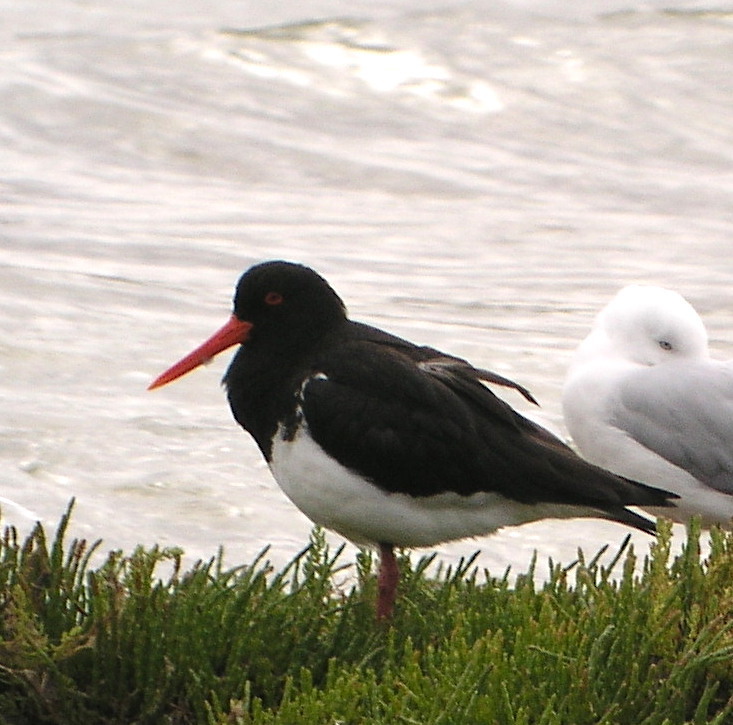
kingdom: Animalia
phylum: Chordata
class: Aves
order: Charadriiformes
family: Haematopodidae
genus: Haematopus
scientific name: Haematopus longirostris
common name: Pied oystercatcher
